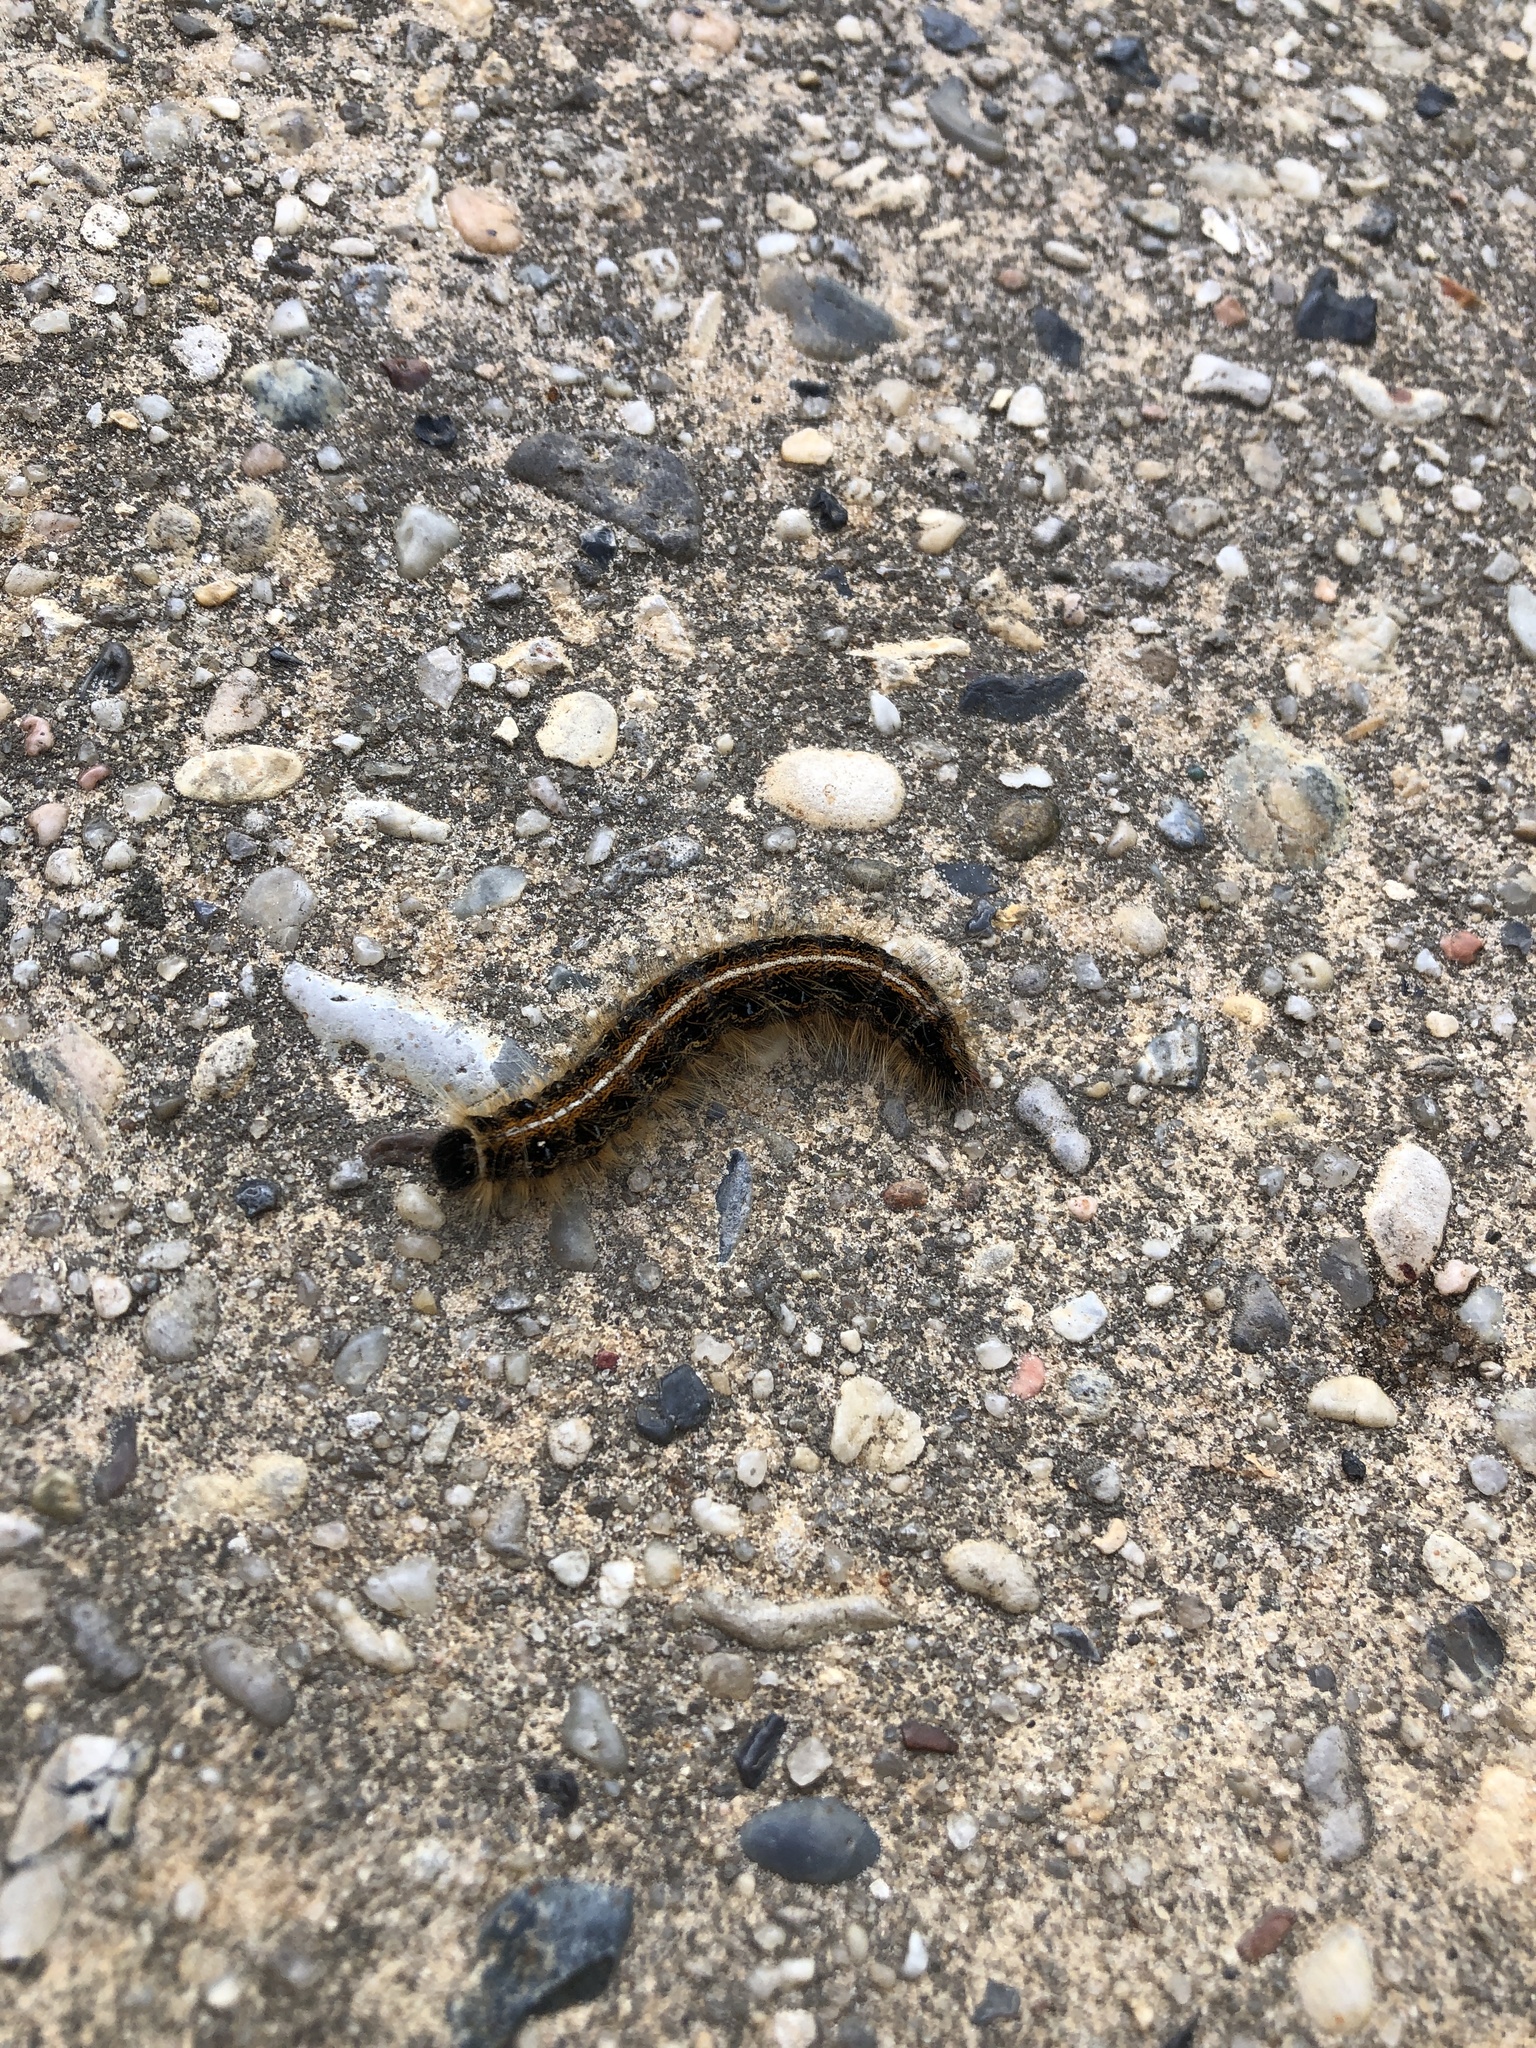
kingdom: Animalia
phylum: Arthropoda
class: Insecta
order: Lepidoptera
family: Lasiocampidae
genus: Malacosoma
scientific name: Malacosoma americana
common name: Eastern tent caterpillar moth
